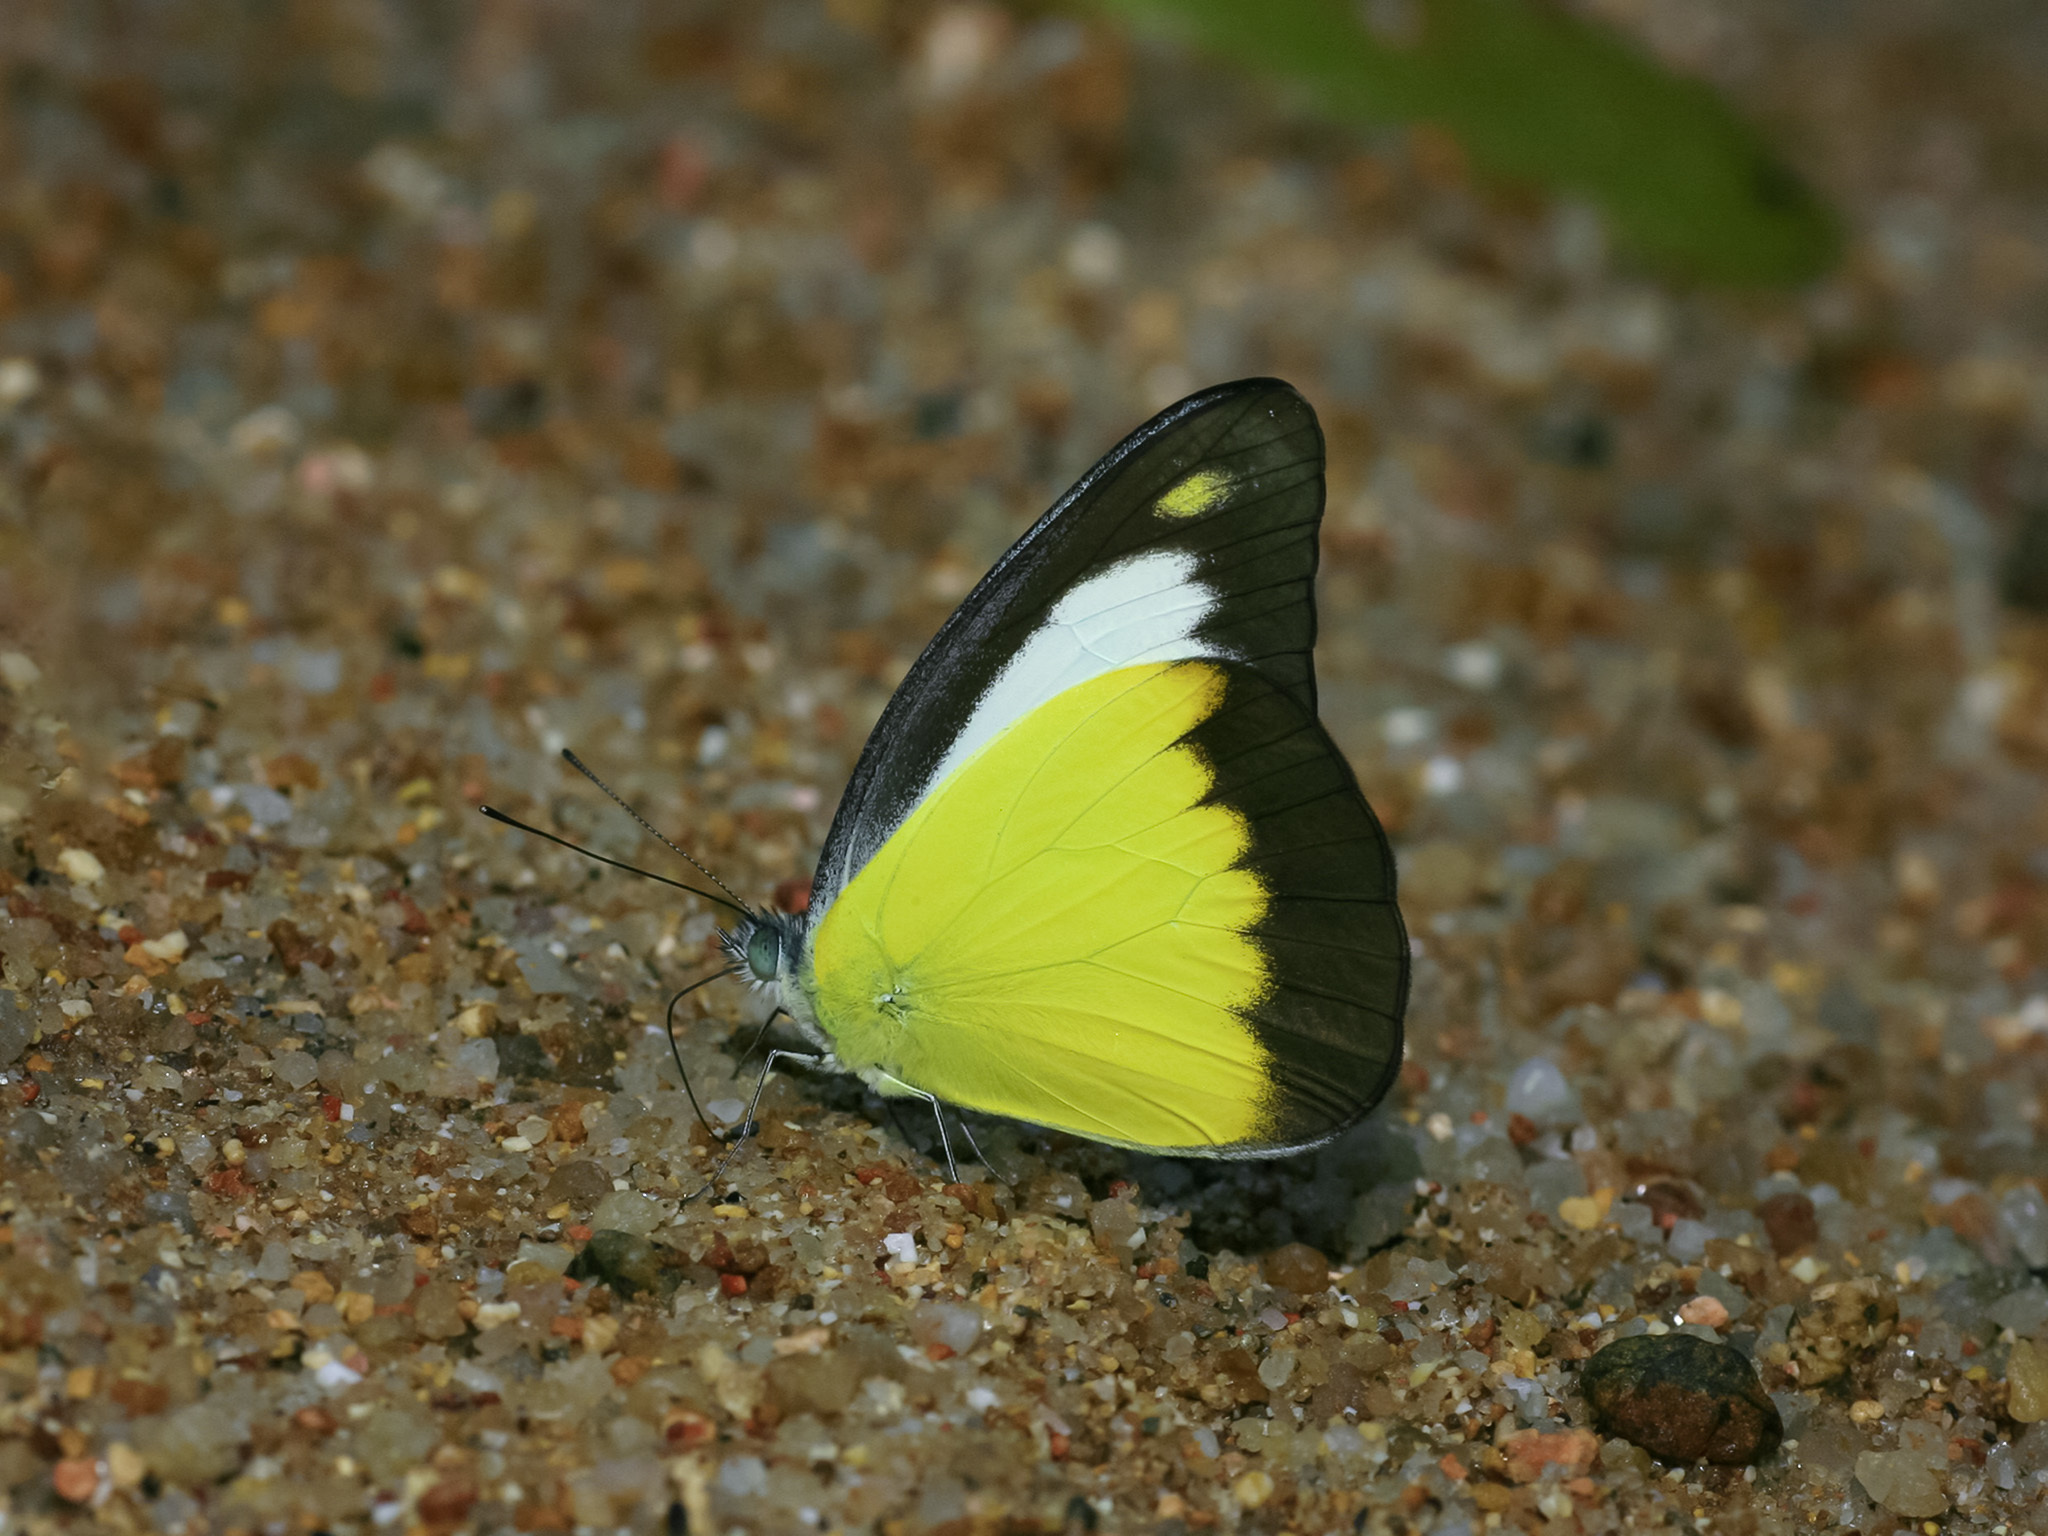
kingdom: Animalia
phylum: Arthropoda
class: Insecta
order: Lepidoptera
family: Pieridae
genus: Appias
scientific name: Appias lyncida
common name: Chocolate albatross
